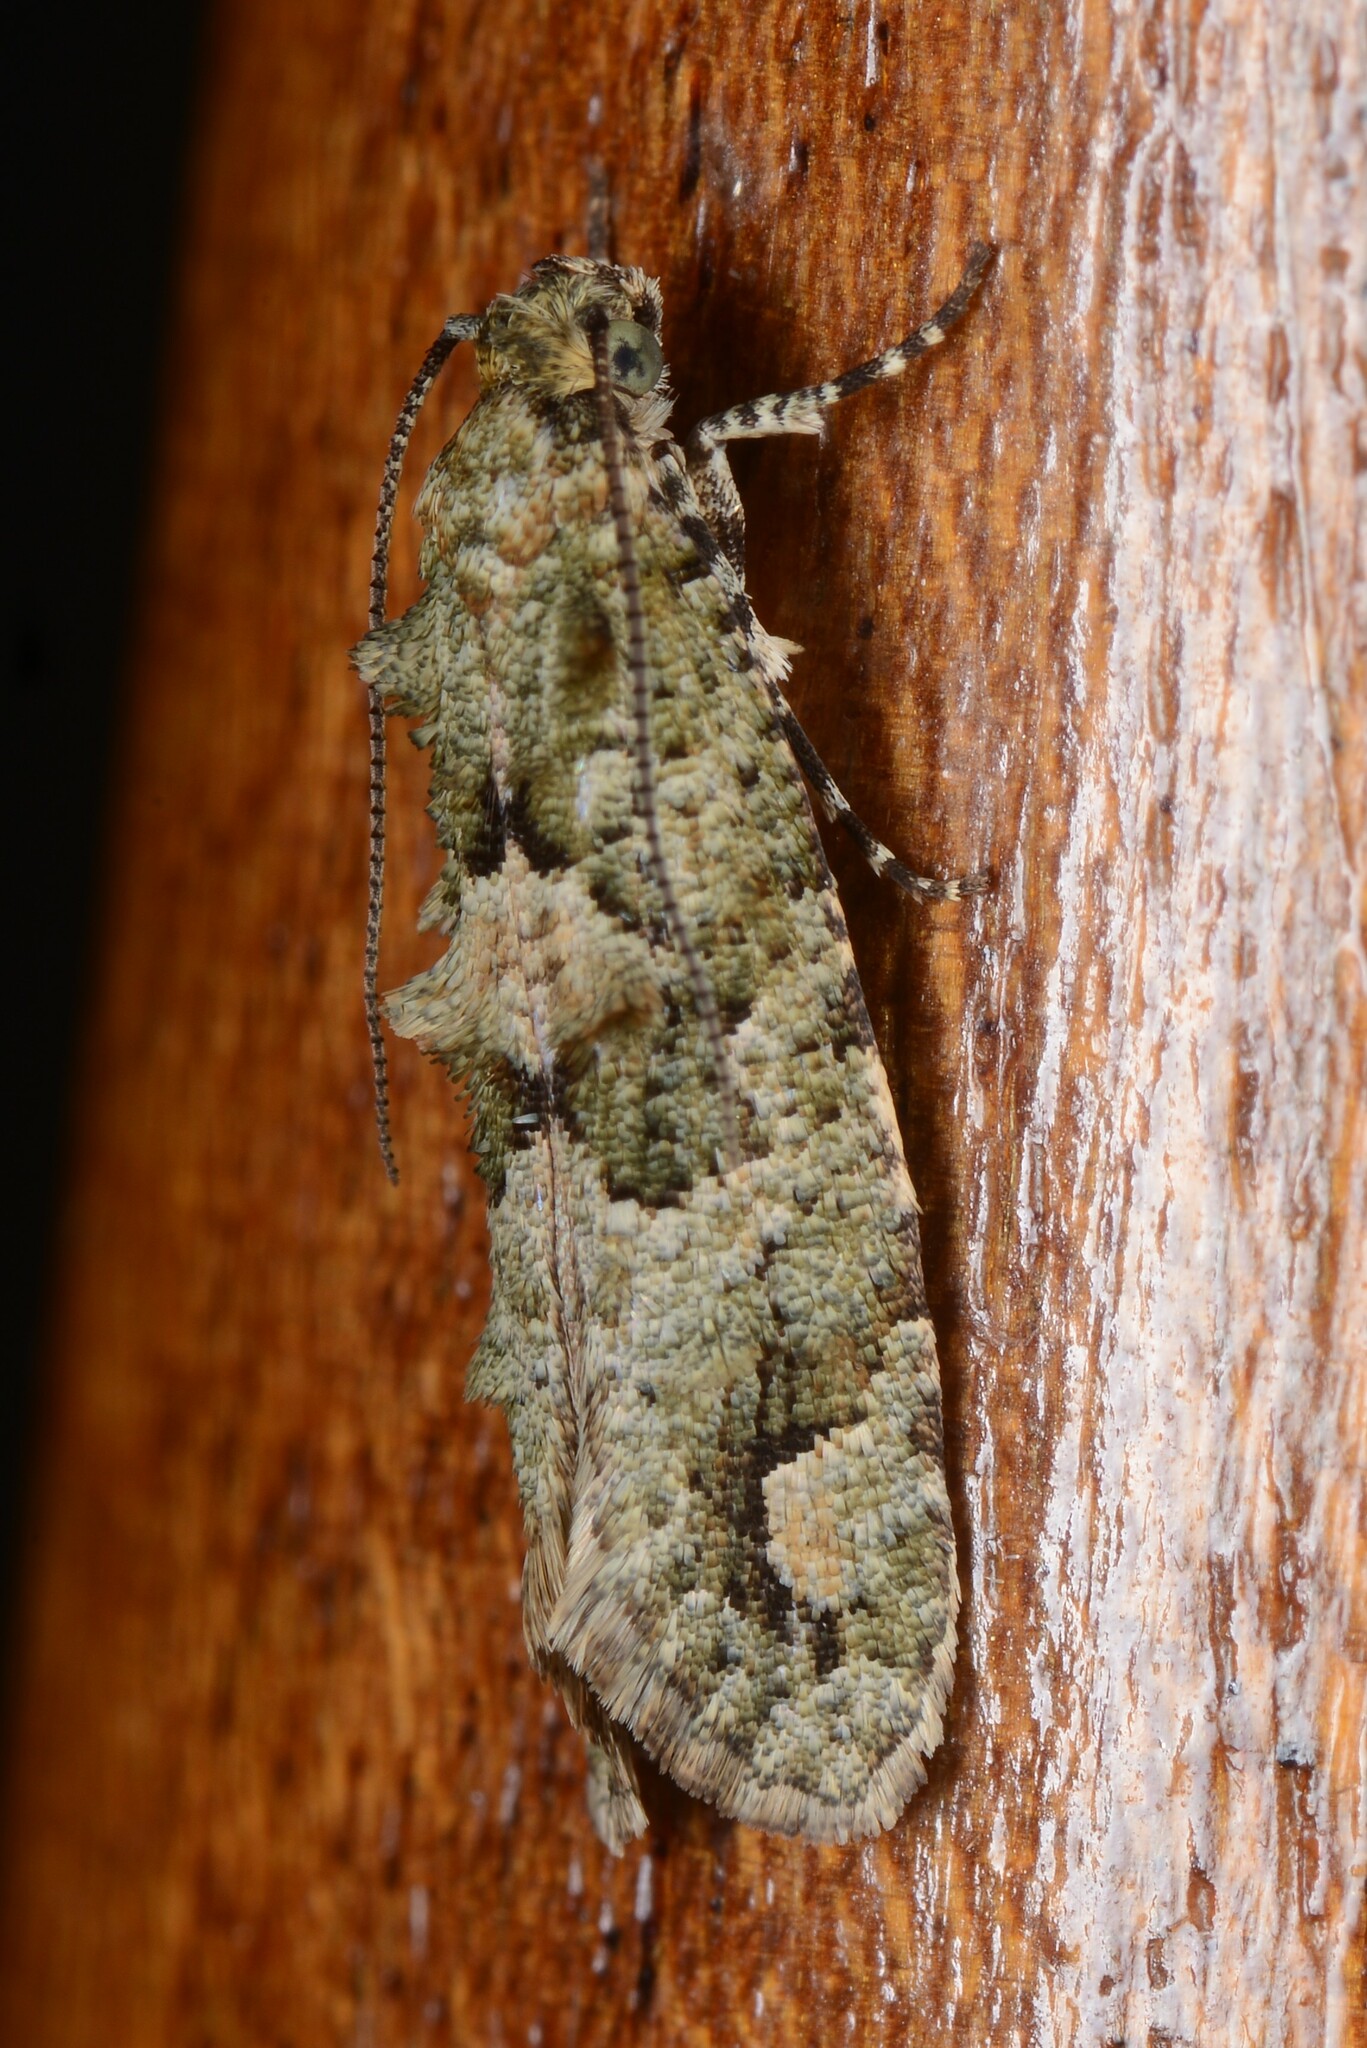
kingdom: Animalia
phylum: Arthropoda
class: Insecta
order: Lepidoptera
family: Tineidae
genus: Lysiphragma
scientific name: Lysiphragma howesii
